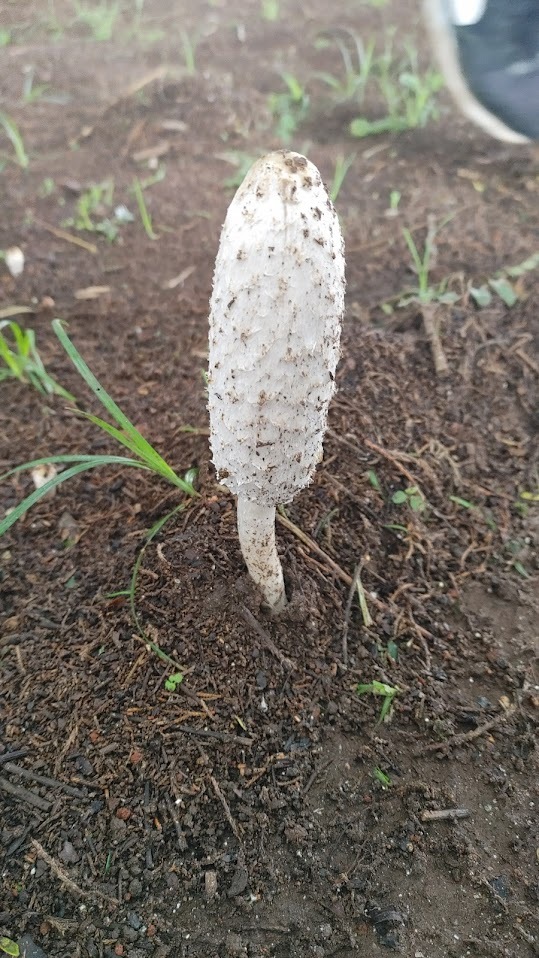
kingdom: Fungi
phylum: Basidiomycota
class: Agaricomycetes
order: Agaricales
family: Agaricaceae
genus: Coprinus
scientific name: Coprinus comatus
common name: Lawyer's wig
